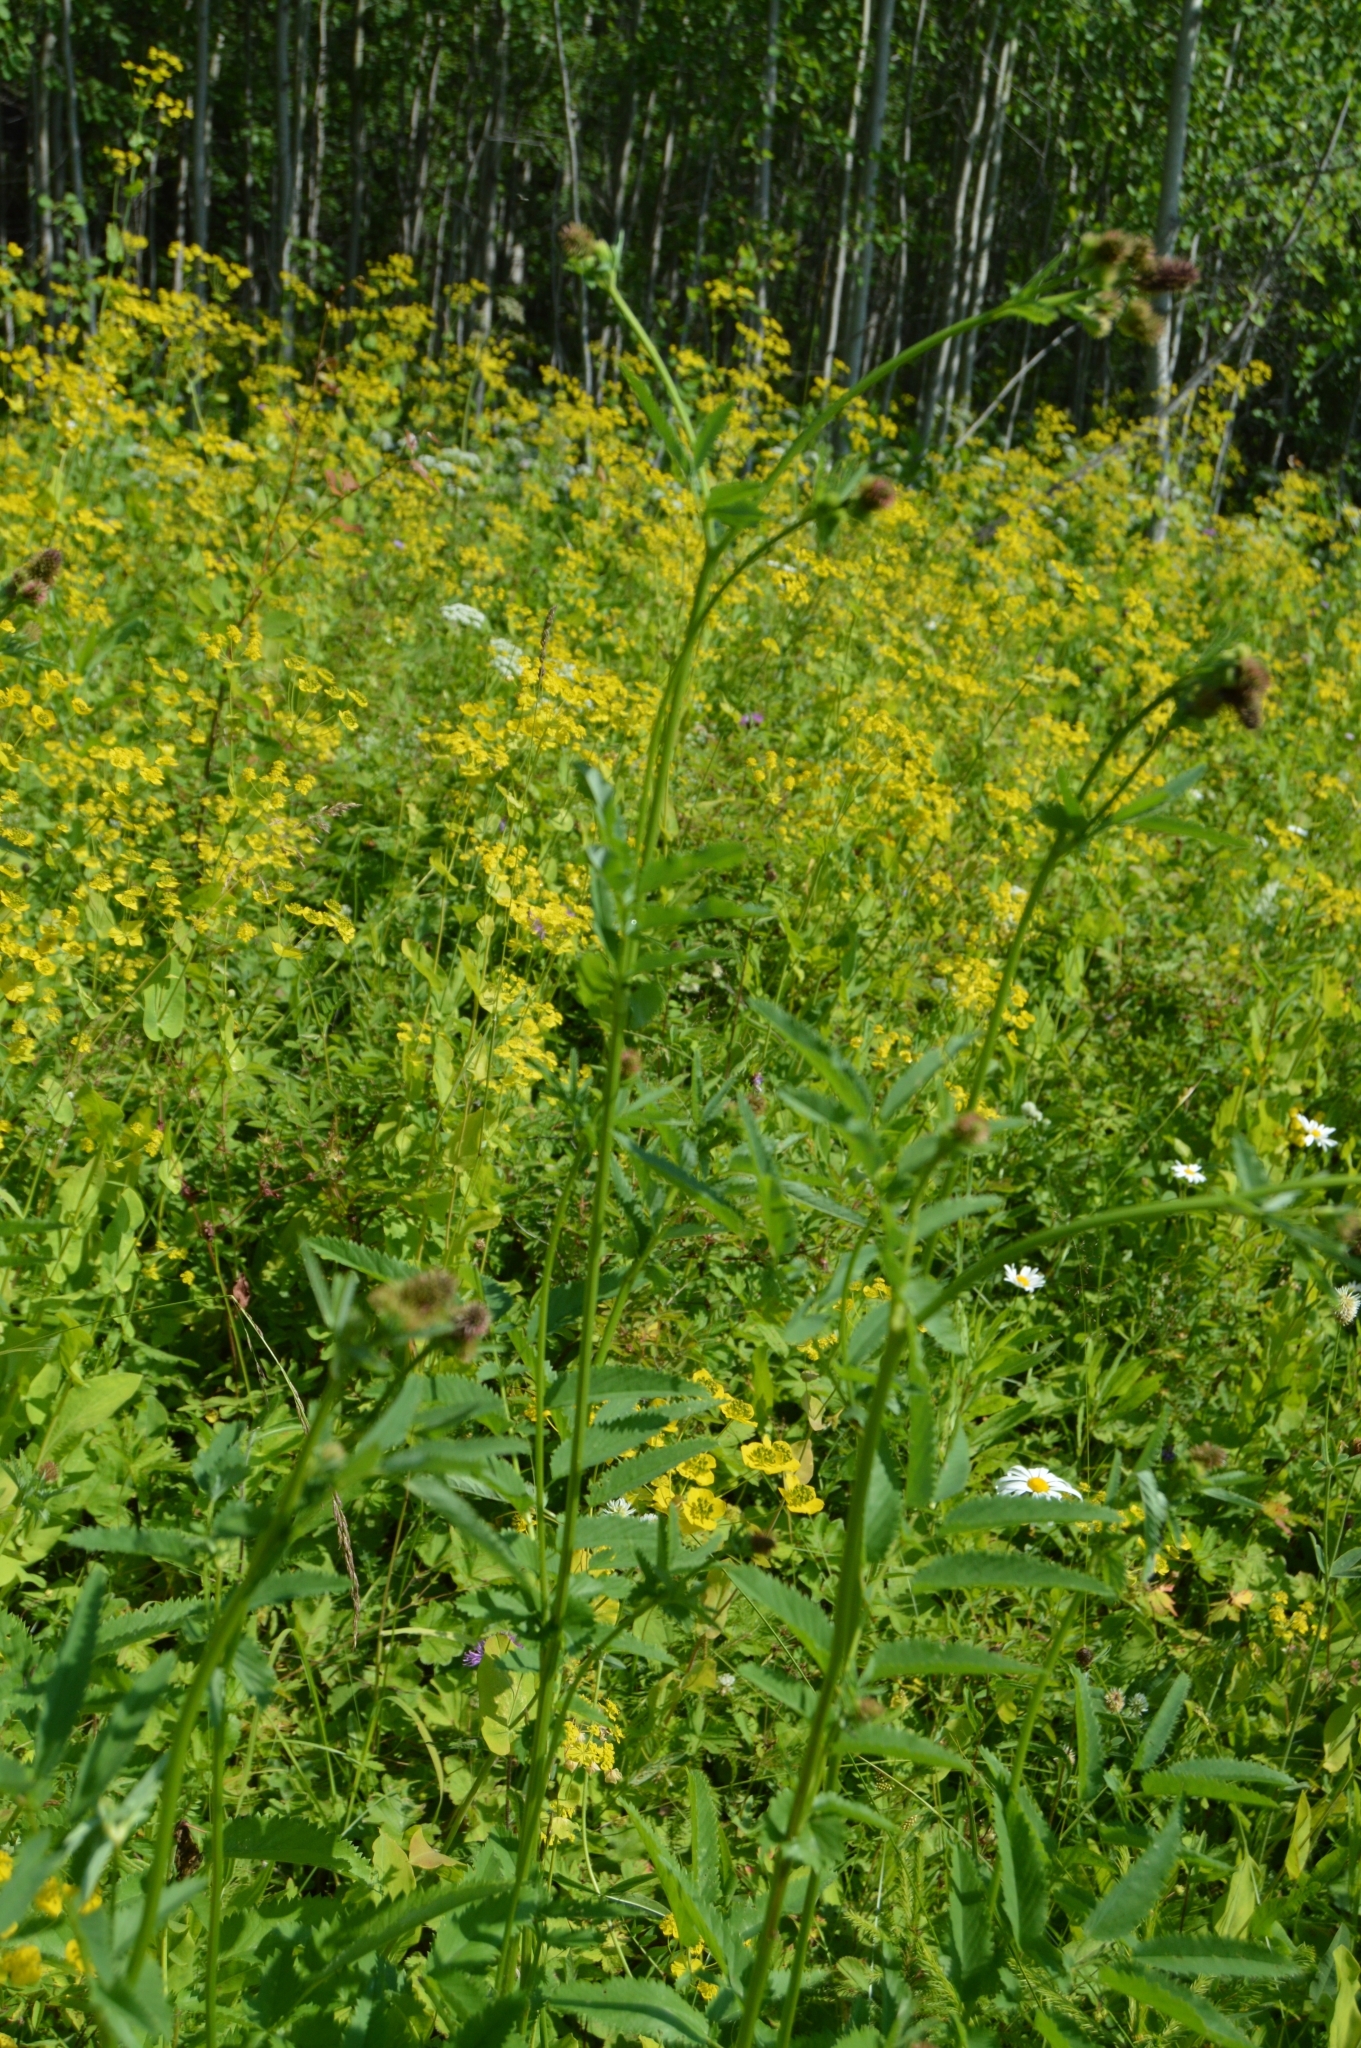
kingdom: Plantae
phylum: Tracheophyta
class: Magnoliopsida
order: Rosales
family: Rosaceae
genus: Sanguisorba
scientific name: Sanguisorba officinalis
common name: Great burnet
